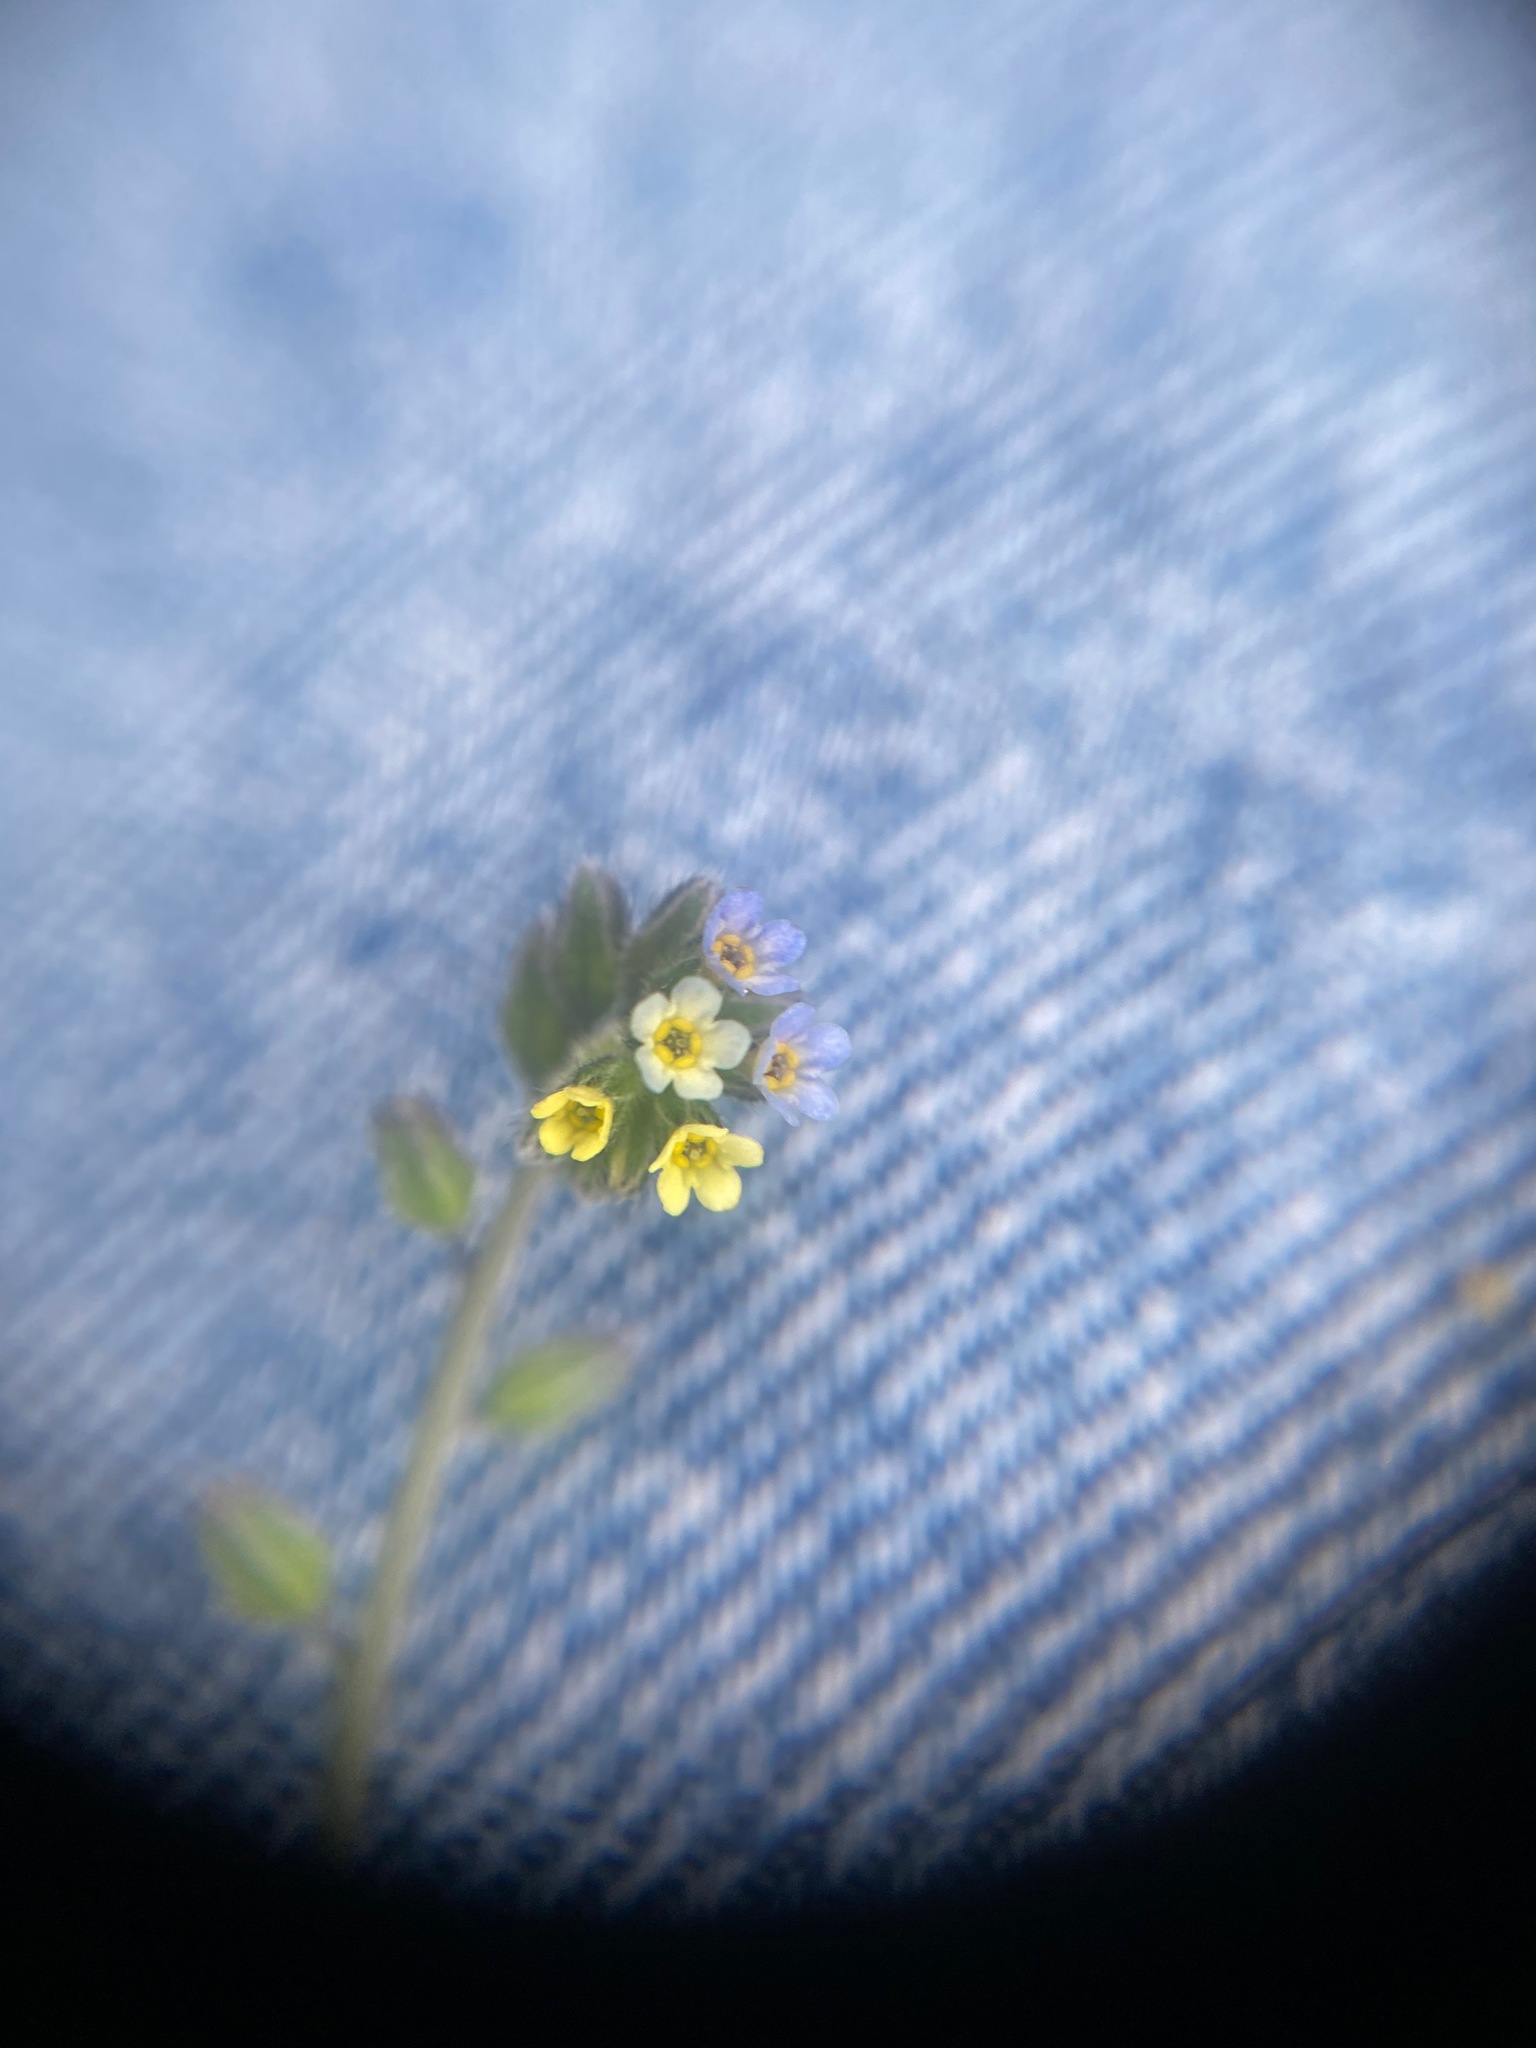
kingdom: Plantae
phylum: Tracheophyta
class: Magnoliopsida
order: Boraginales
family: Boraginaceae
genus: Myosotis
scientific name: Myosotis discolor
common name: Changing forget-me-not
